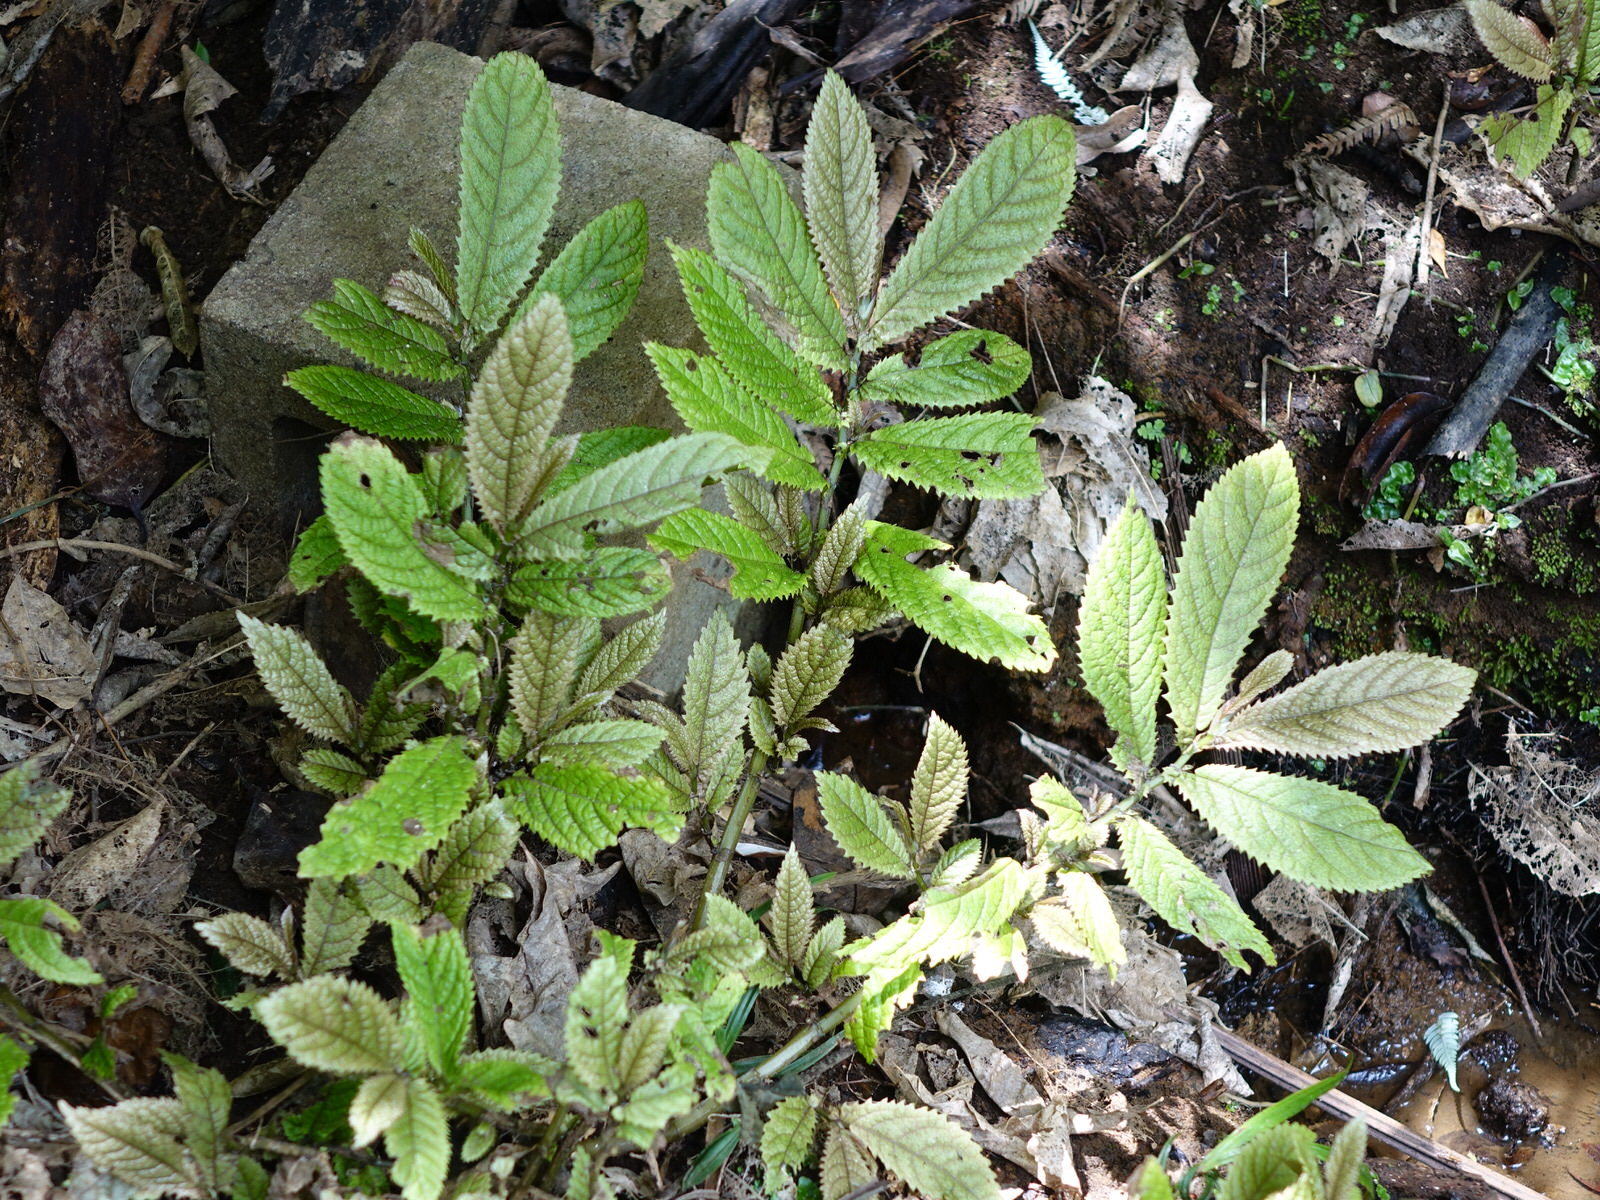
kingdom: Plantae
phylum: Tracheophyta
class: Magnoliopsida
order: Rosales
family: Urticaceae
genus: Elatostema
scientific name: Elatostema rugosum
